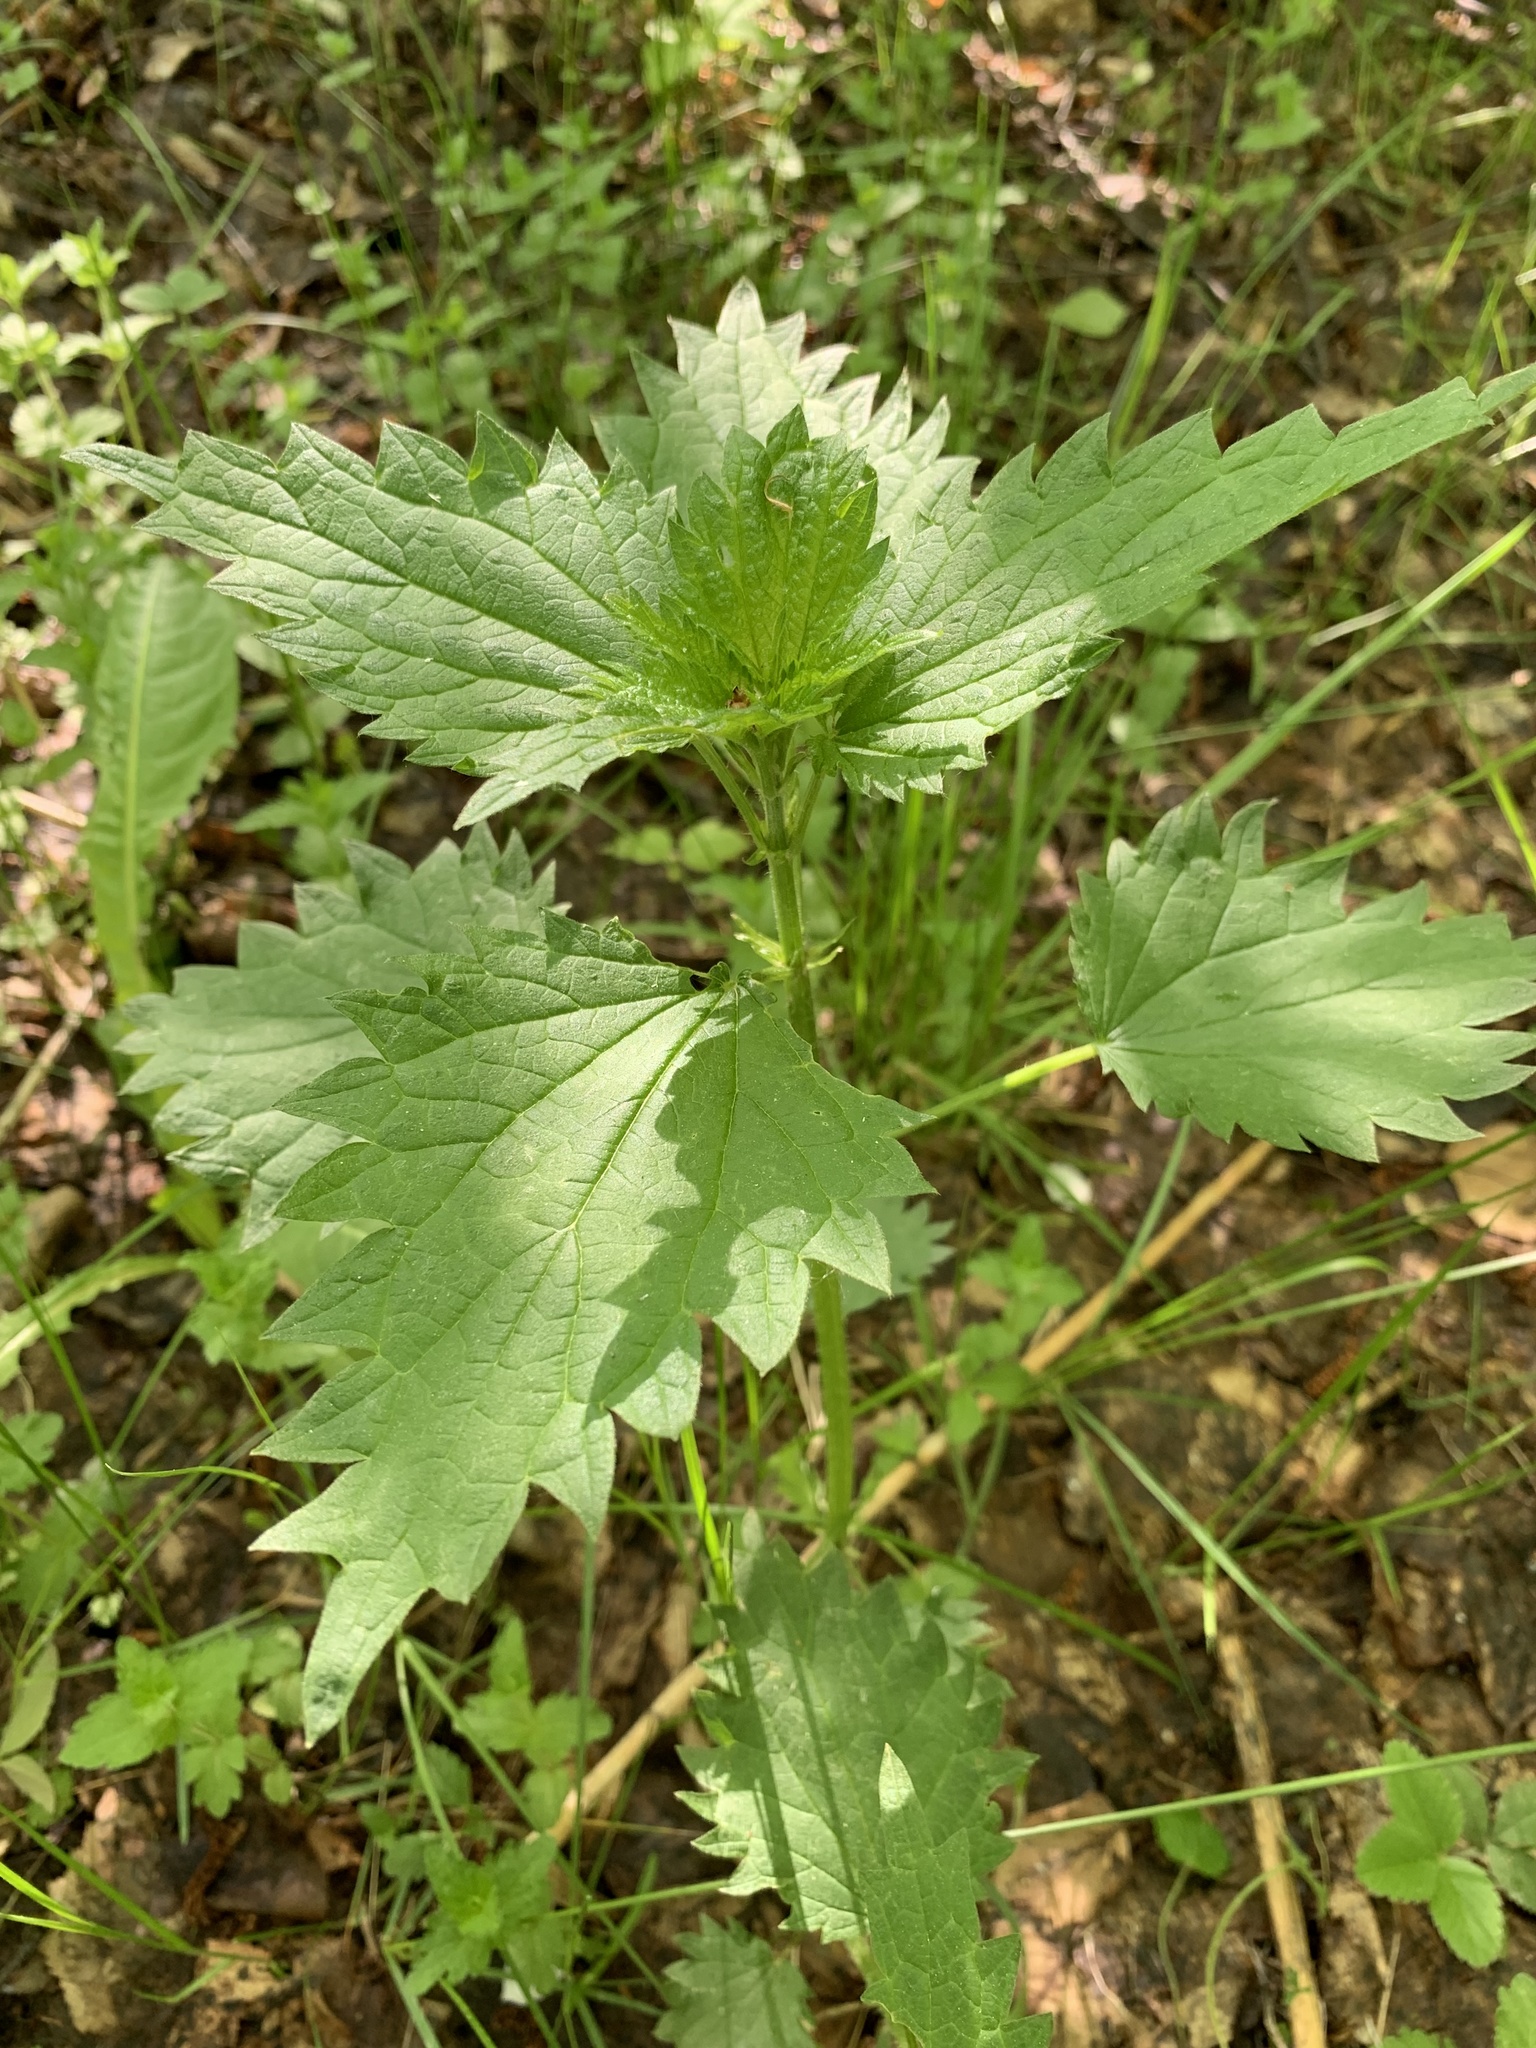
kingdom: Plantae
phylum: Tracheophyta
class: Magnoliopsida
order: Rosales
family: Urticaceae
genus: Urtica
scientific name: Urtica dioica
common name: Common nettle
